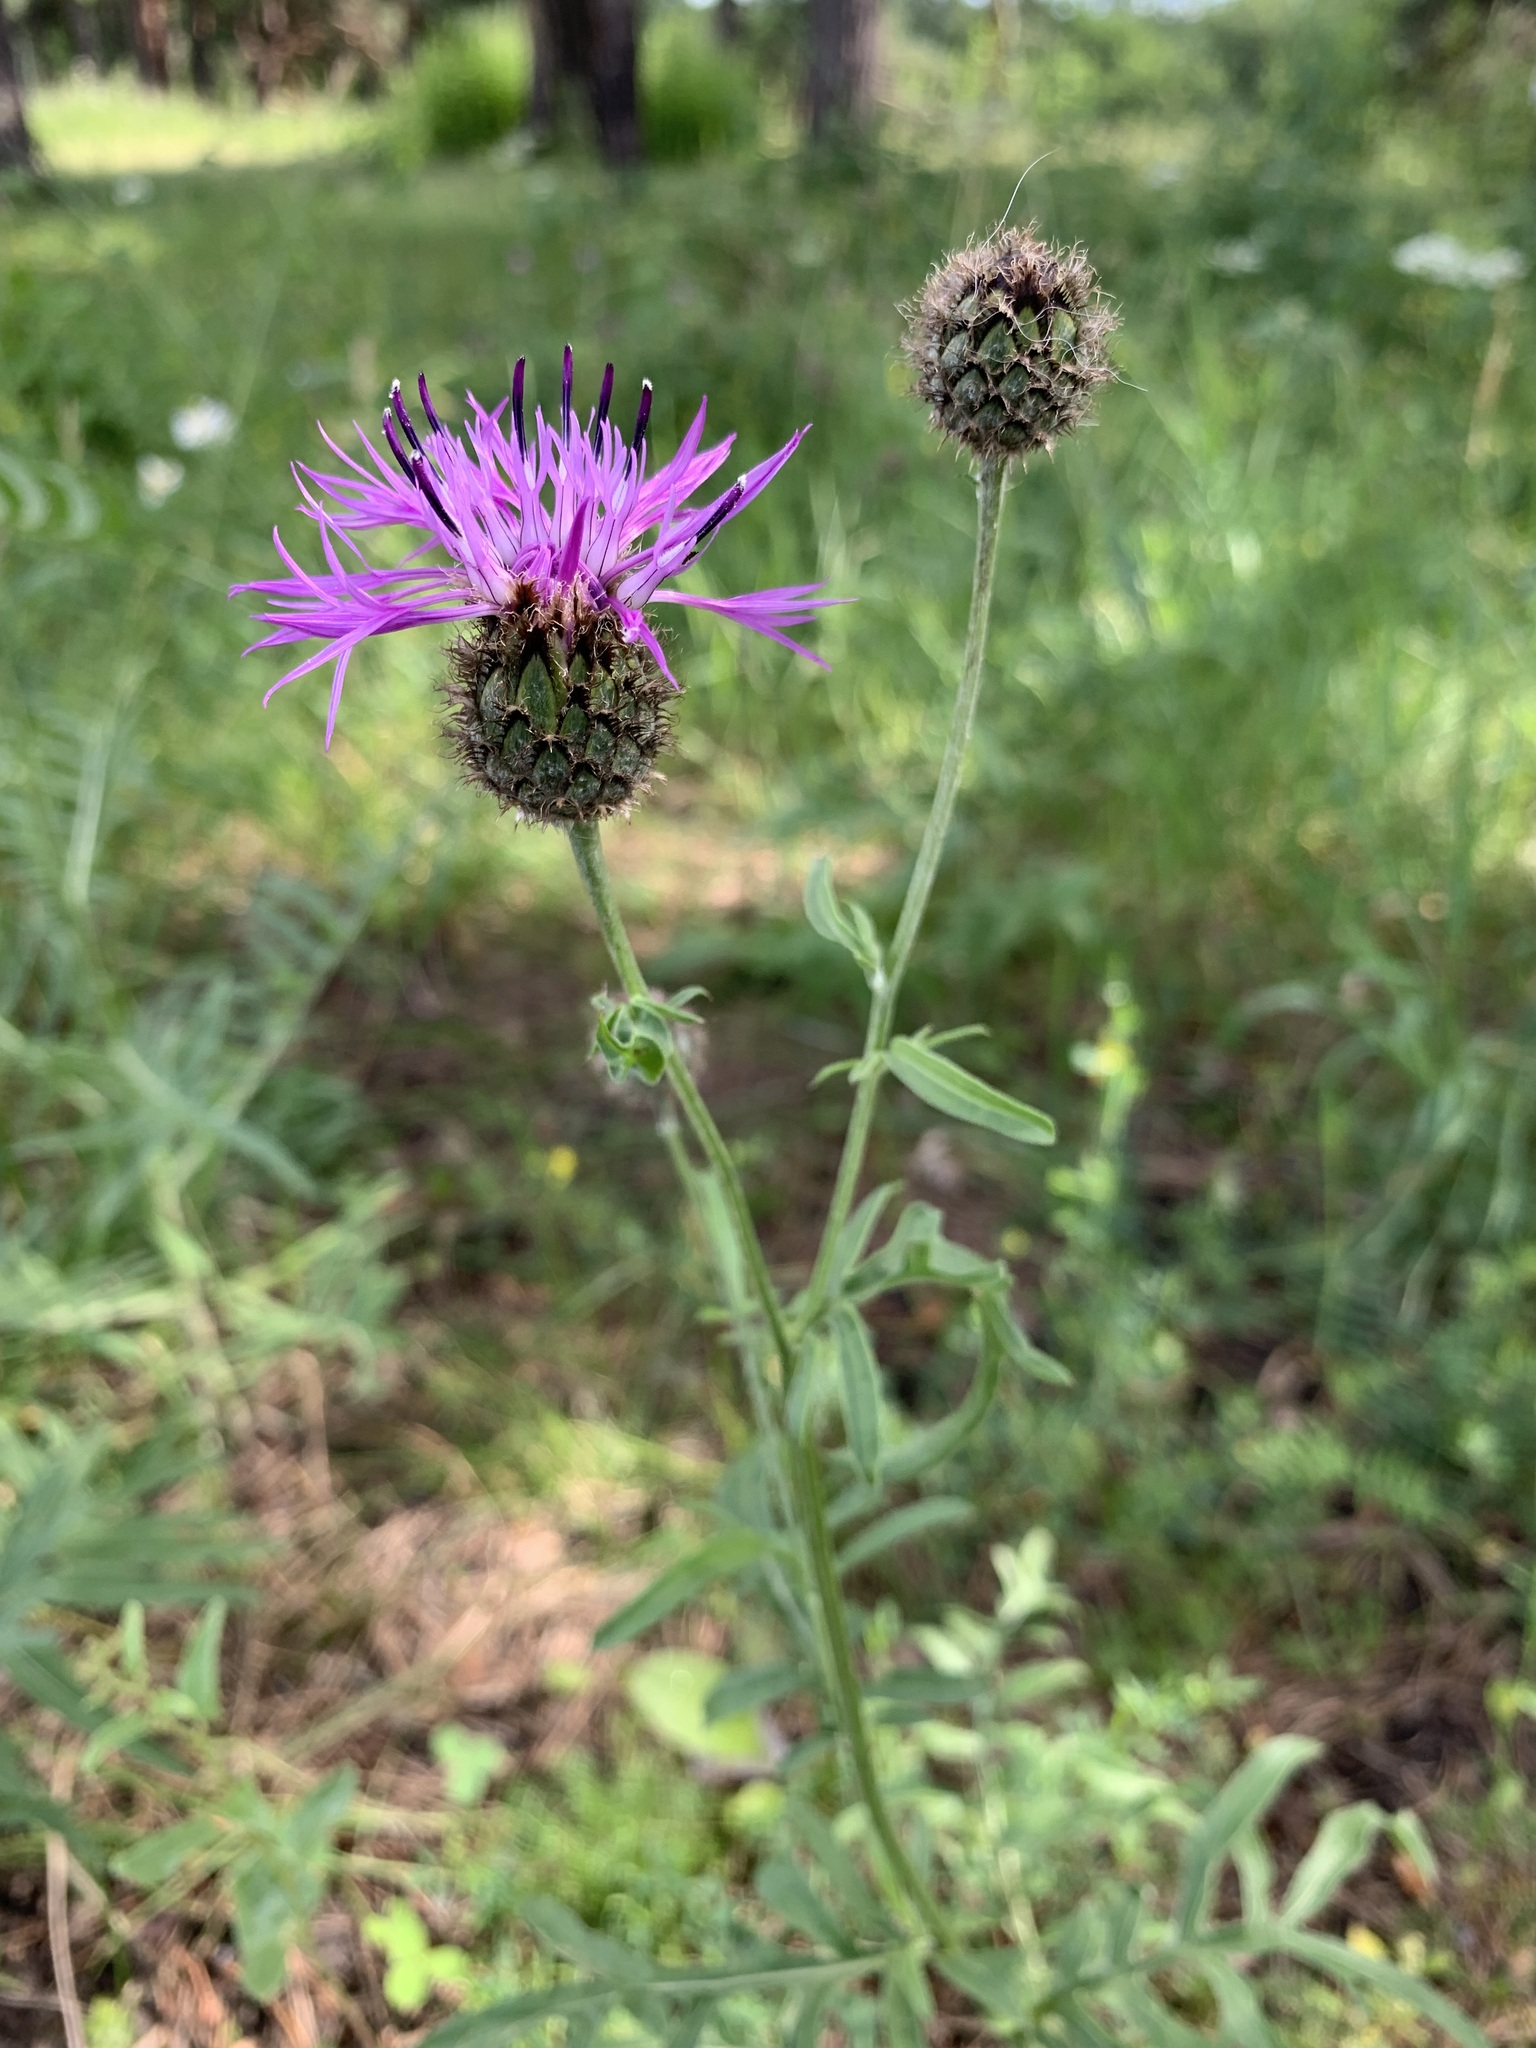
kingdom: Plantae
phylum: Tracheophyta
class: Magnoliopsida
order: Asterales
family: Asteraceae
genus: Centaurea
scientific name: Centaurea scabiosa
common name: Greater knapweed
